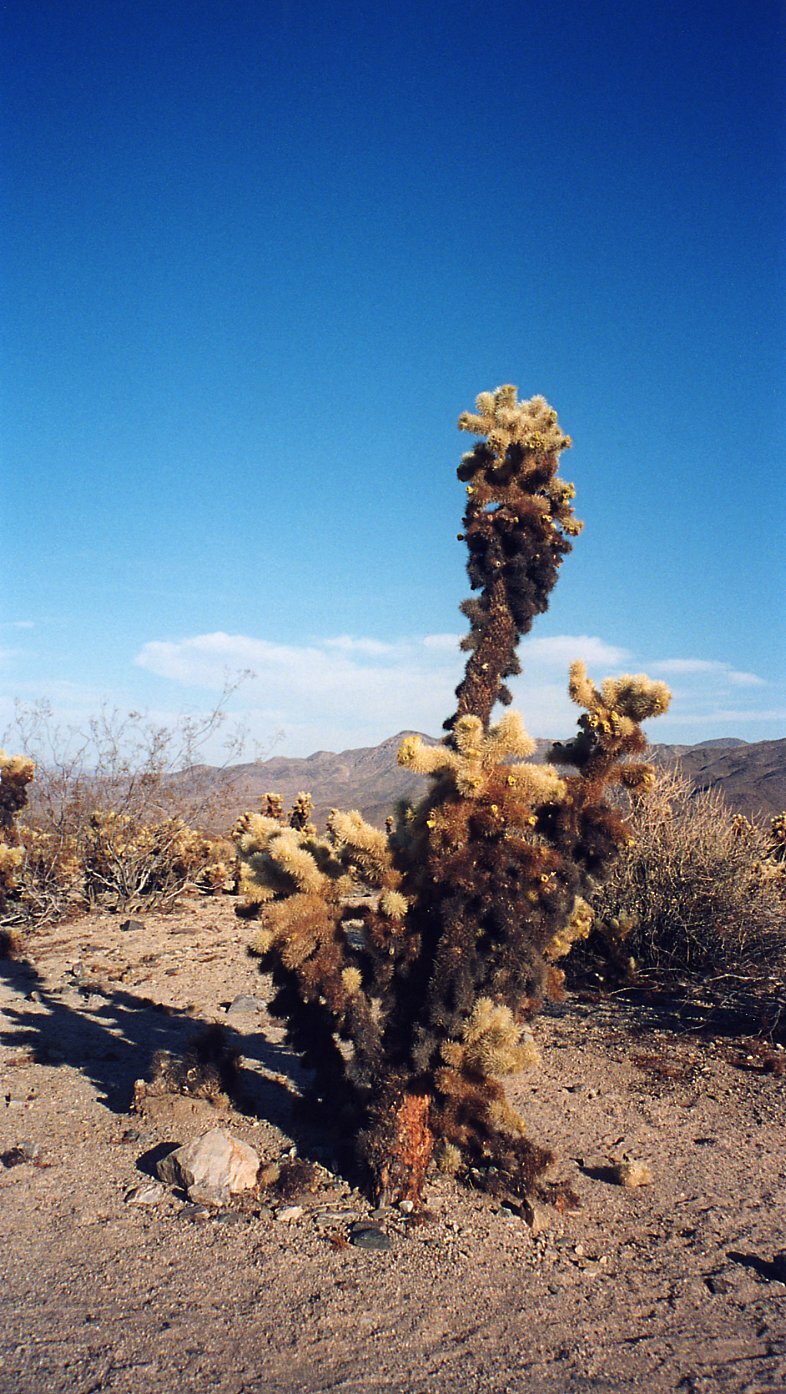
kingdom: Plantae
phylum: Tracheophyta
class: Magnoliopsida
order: Caryophyllales
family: Cactaceae
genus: Cylindropuntia
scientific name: Cylindropuntia fosbergii
